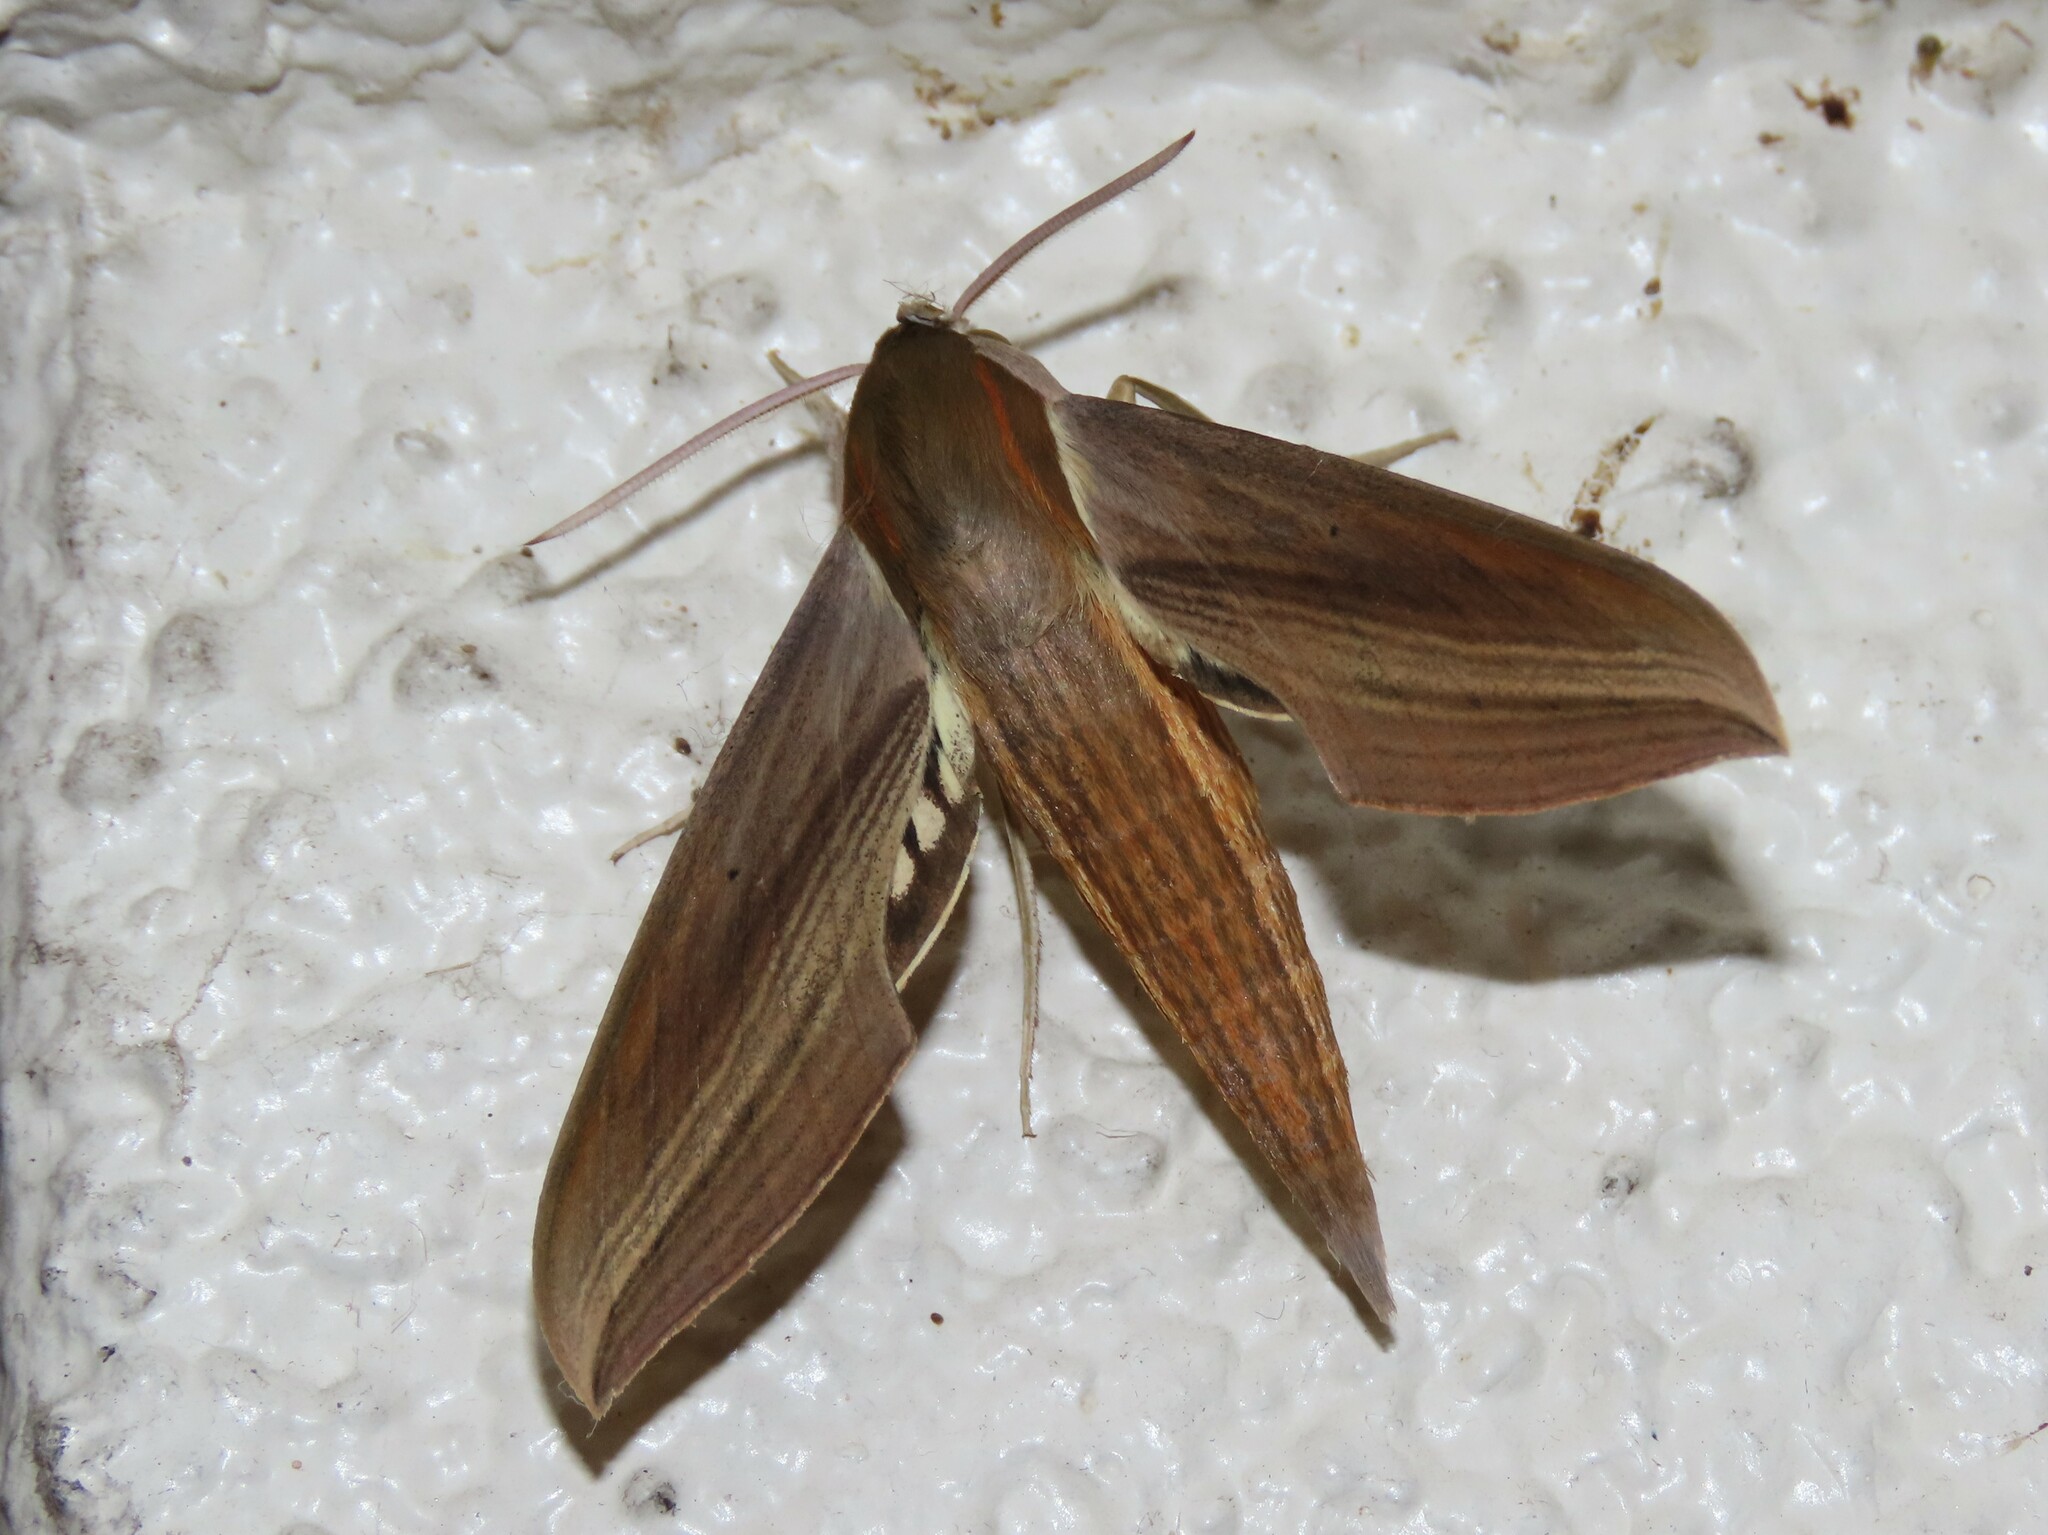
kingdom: Animalia
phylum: Arthropoda
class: Insecta
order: Lepidoptera
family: Sphingidae
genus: Xylophanes
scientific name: Xylophanes tersa
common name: Tersa sphinx
